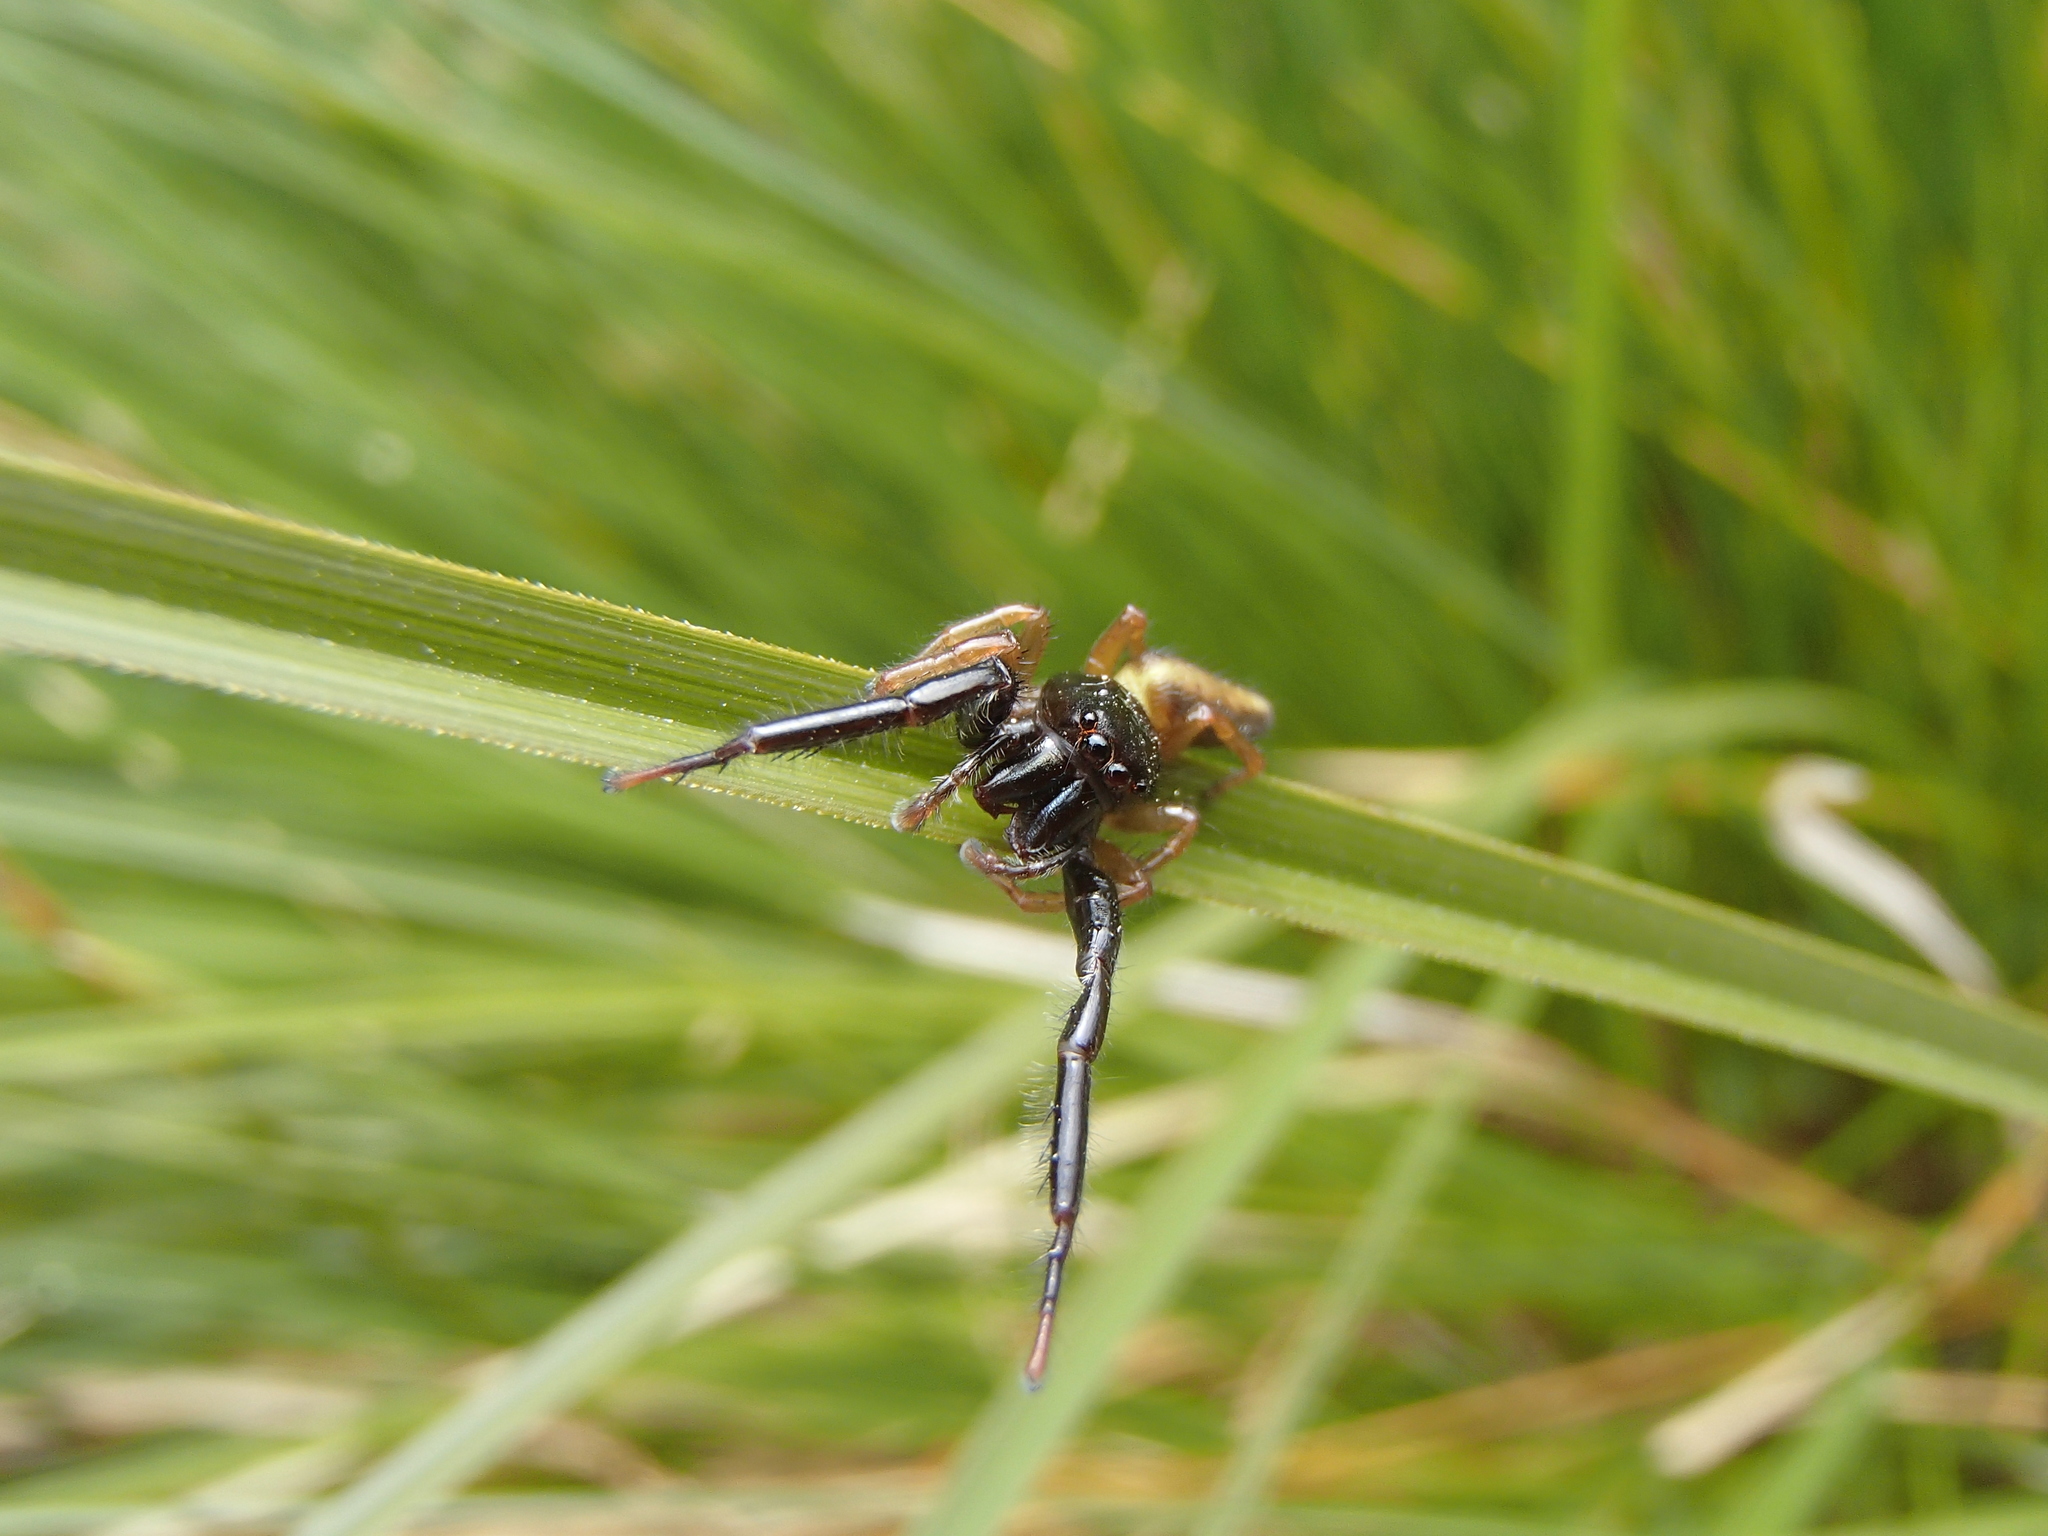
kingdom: Animalia
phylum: Arthropoda
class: Arachnida
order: Araneae
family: Salticidae
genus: Trite
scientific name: Trite planiceps
